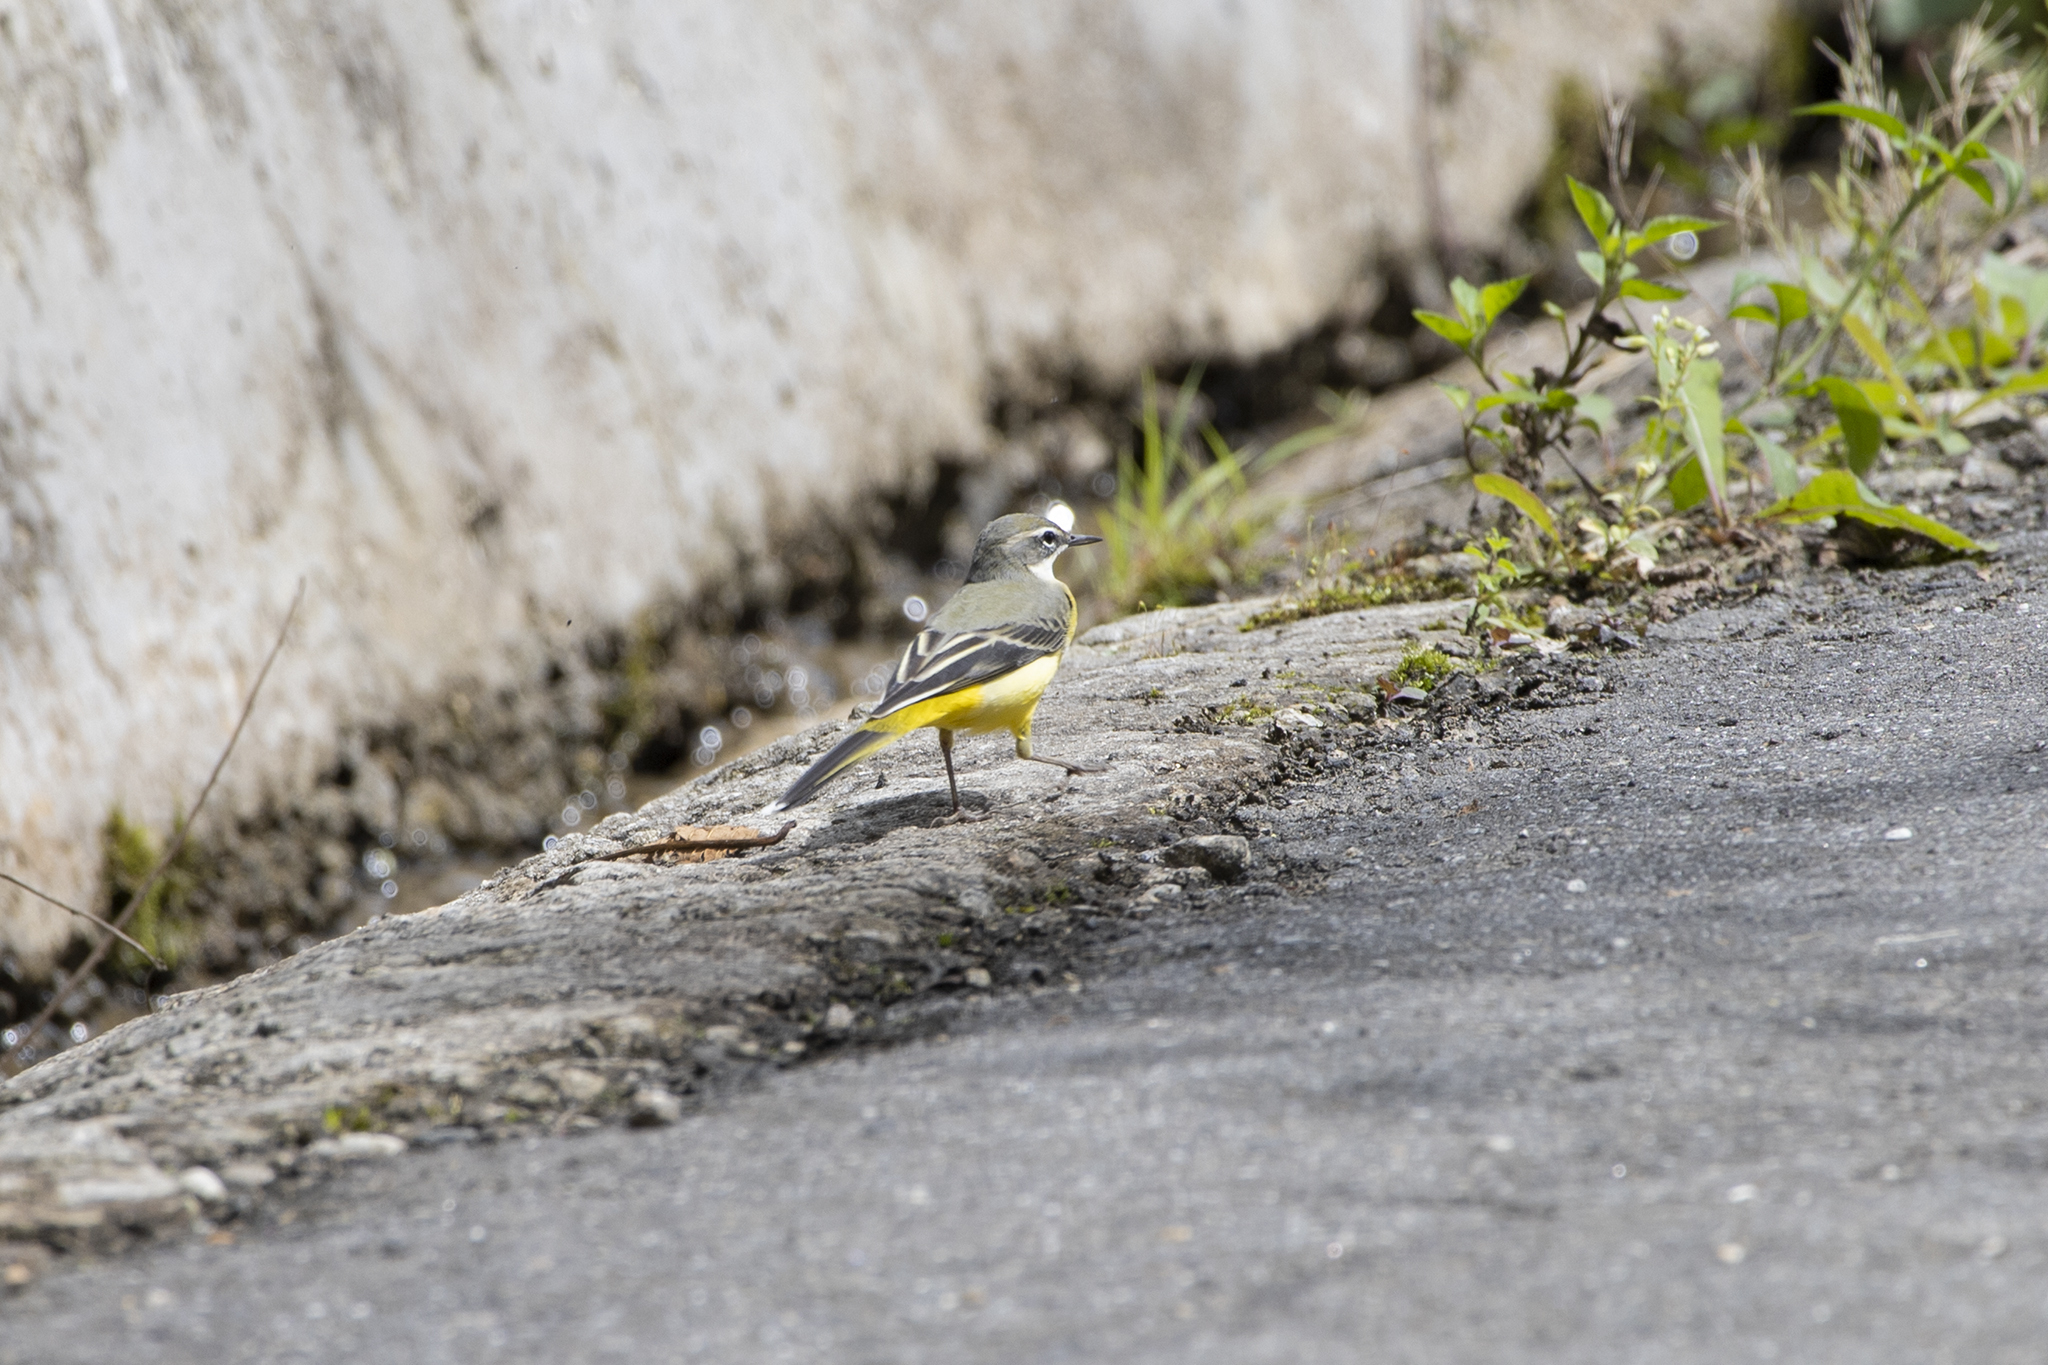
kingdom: Animalia
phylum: Chordata
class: Aves
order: Passeriformes
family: Motacillidae
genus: Motacilla
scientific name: Motacilla cinerea
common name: Grey wagtail
